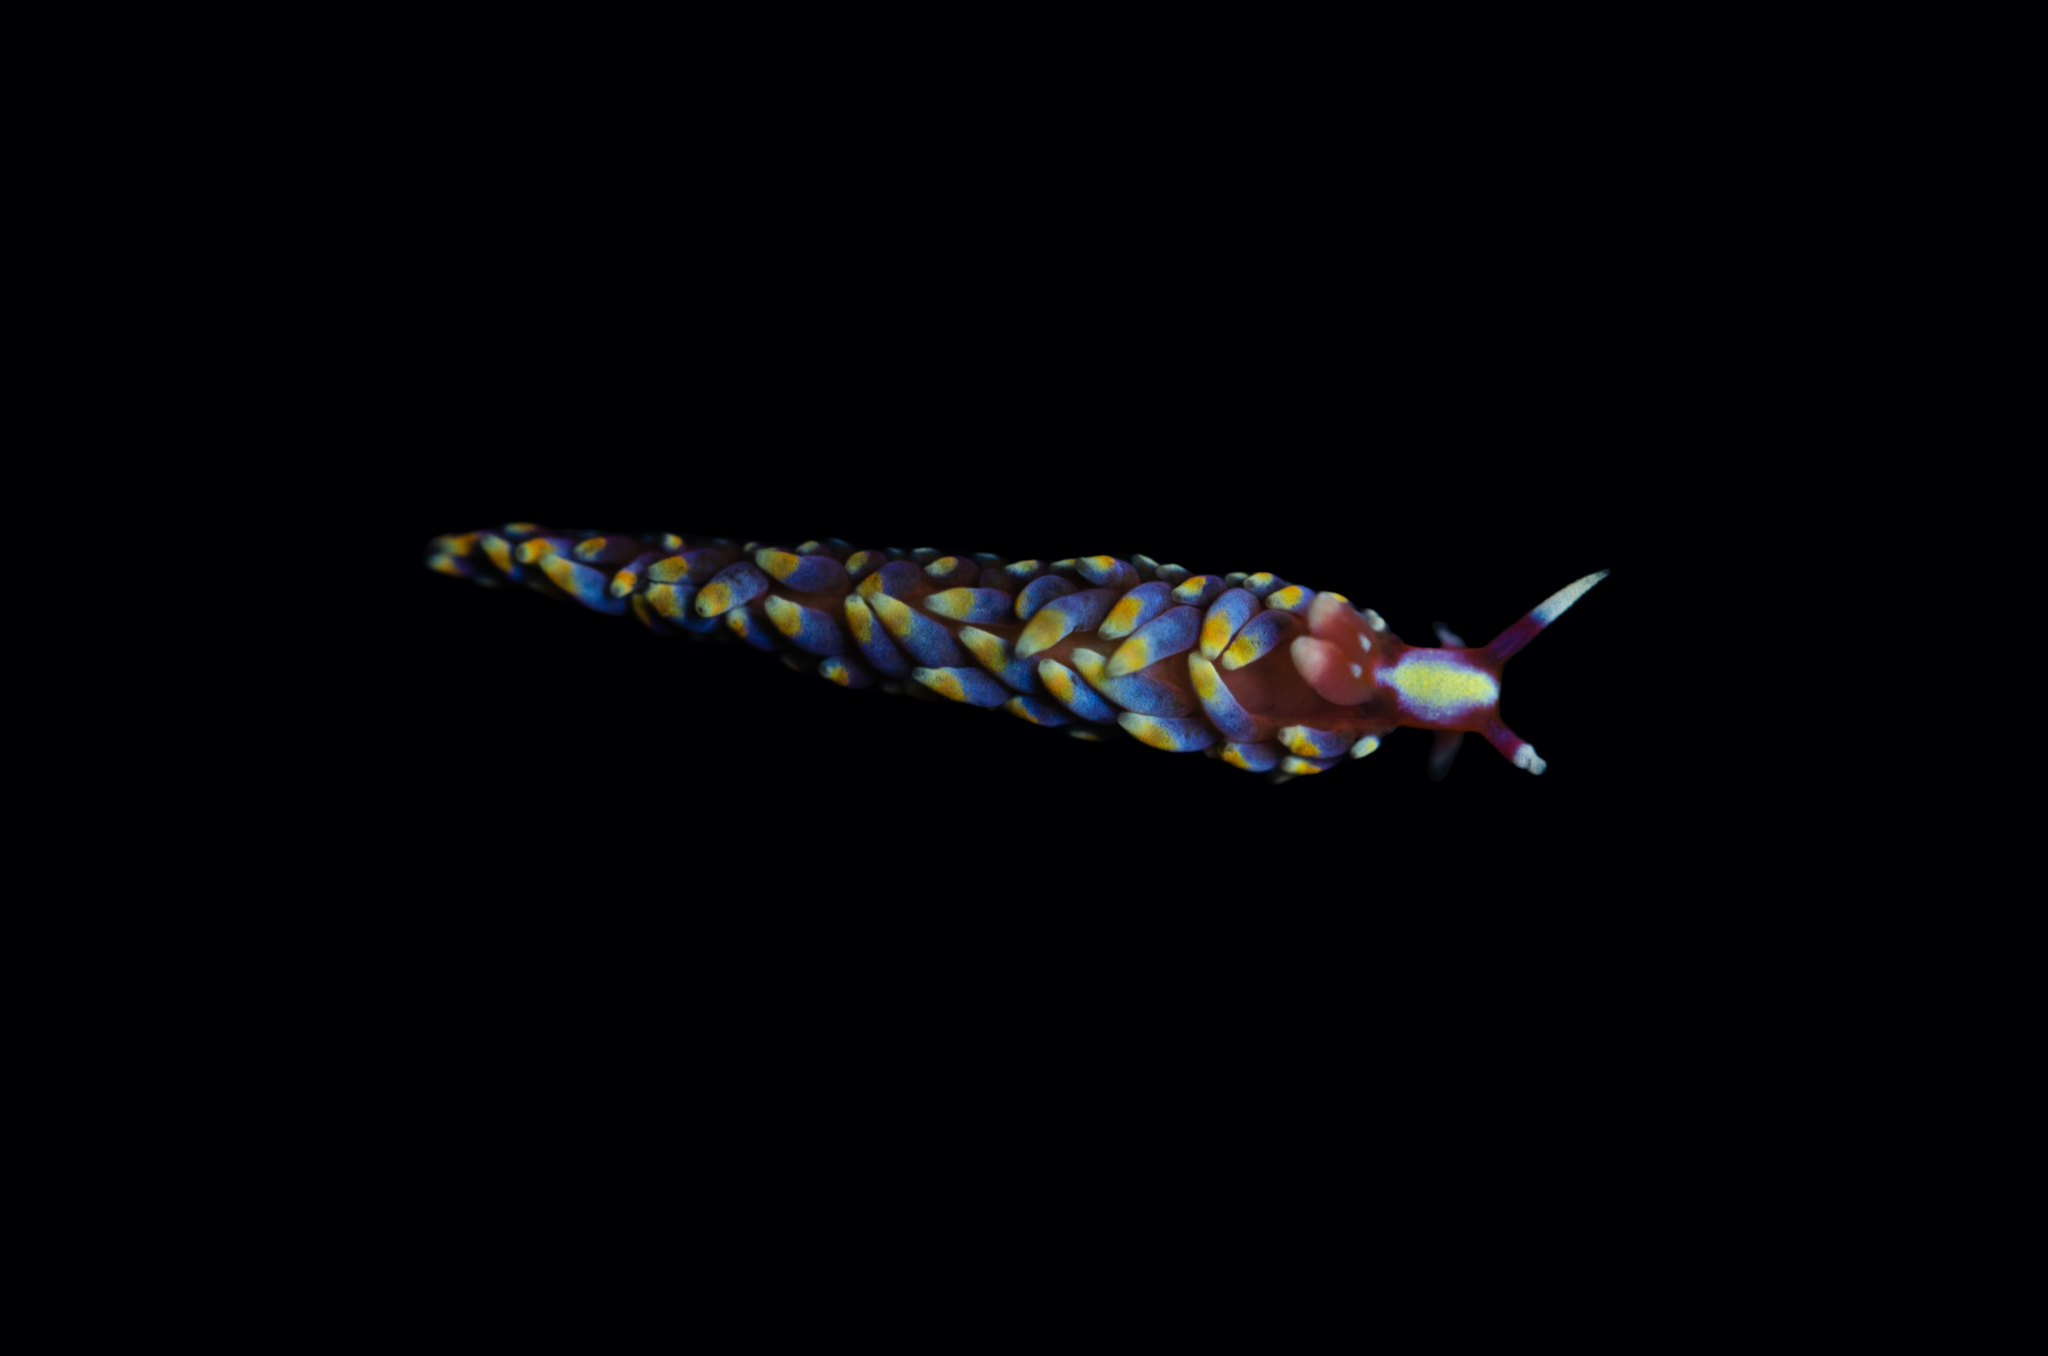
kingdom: Animalia
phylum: Mollusca
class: Gastropoda
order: Nudibranchia
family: Babakinidae
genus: Babakina
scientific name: Babakina anadoni
